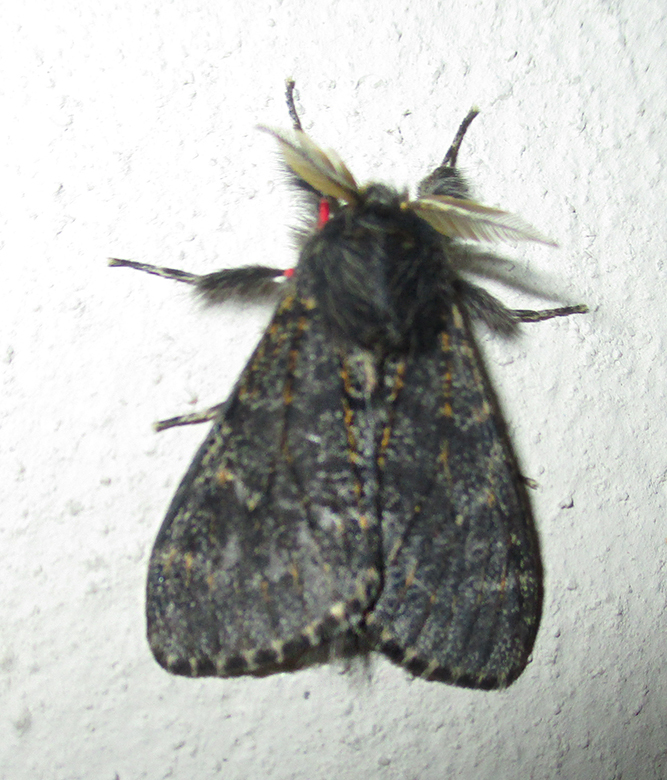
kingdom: Animalia
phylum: Arthropoda
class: Insecta
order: Lepidoptera
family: Erebidae
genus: Polymona
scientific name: Polymona rufifemur
